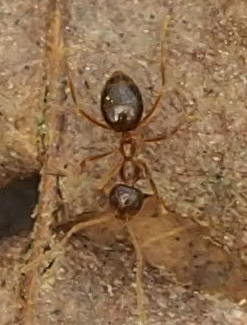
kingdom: Animalia
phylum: Arthropoda
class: Insecta
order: Hymenoptera
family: Formicidae
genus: Prenolepis
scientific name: Prenolepis imparis
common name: Small honey ant
